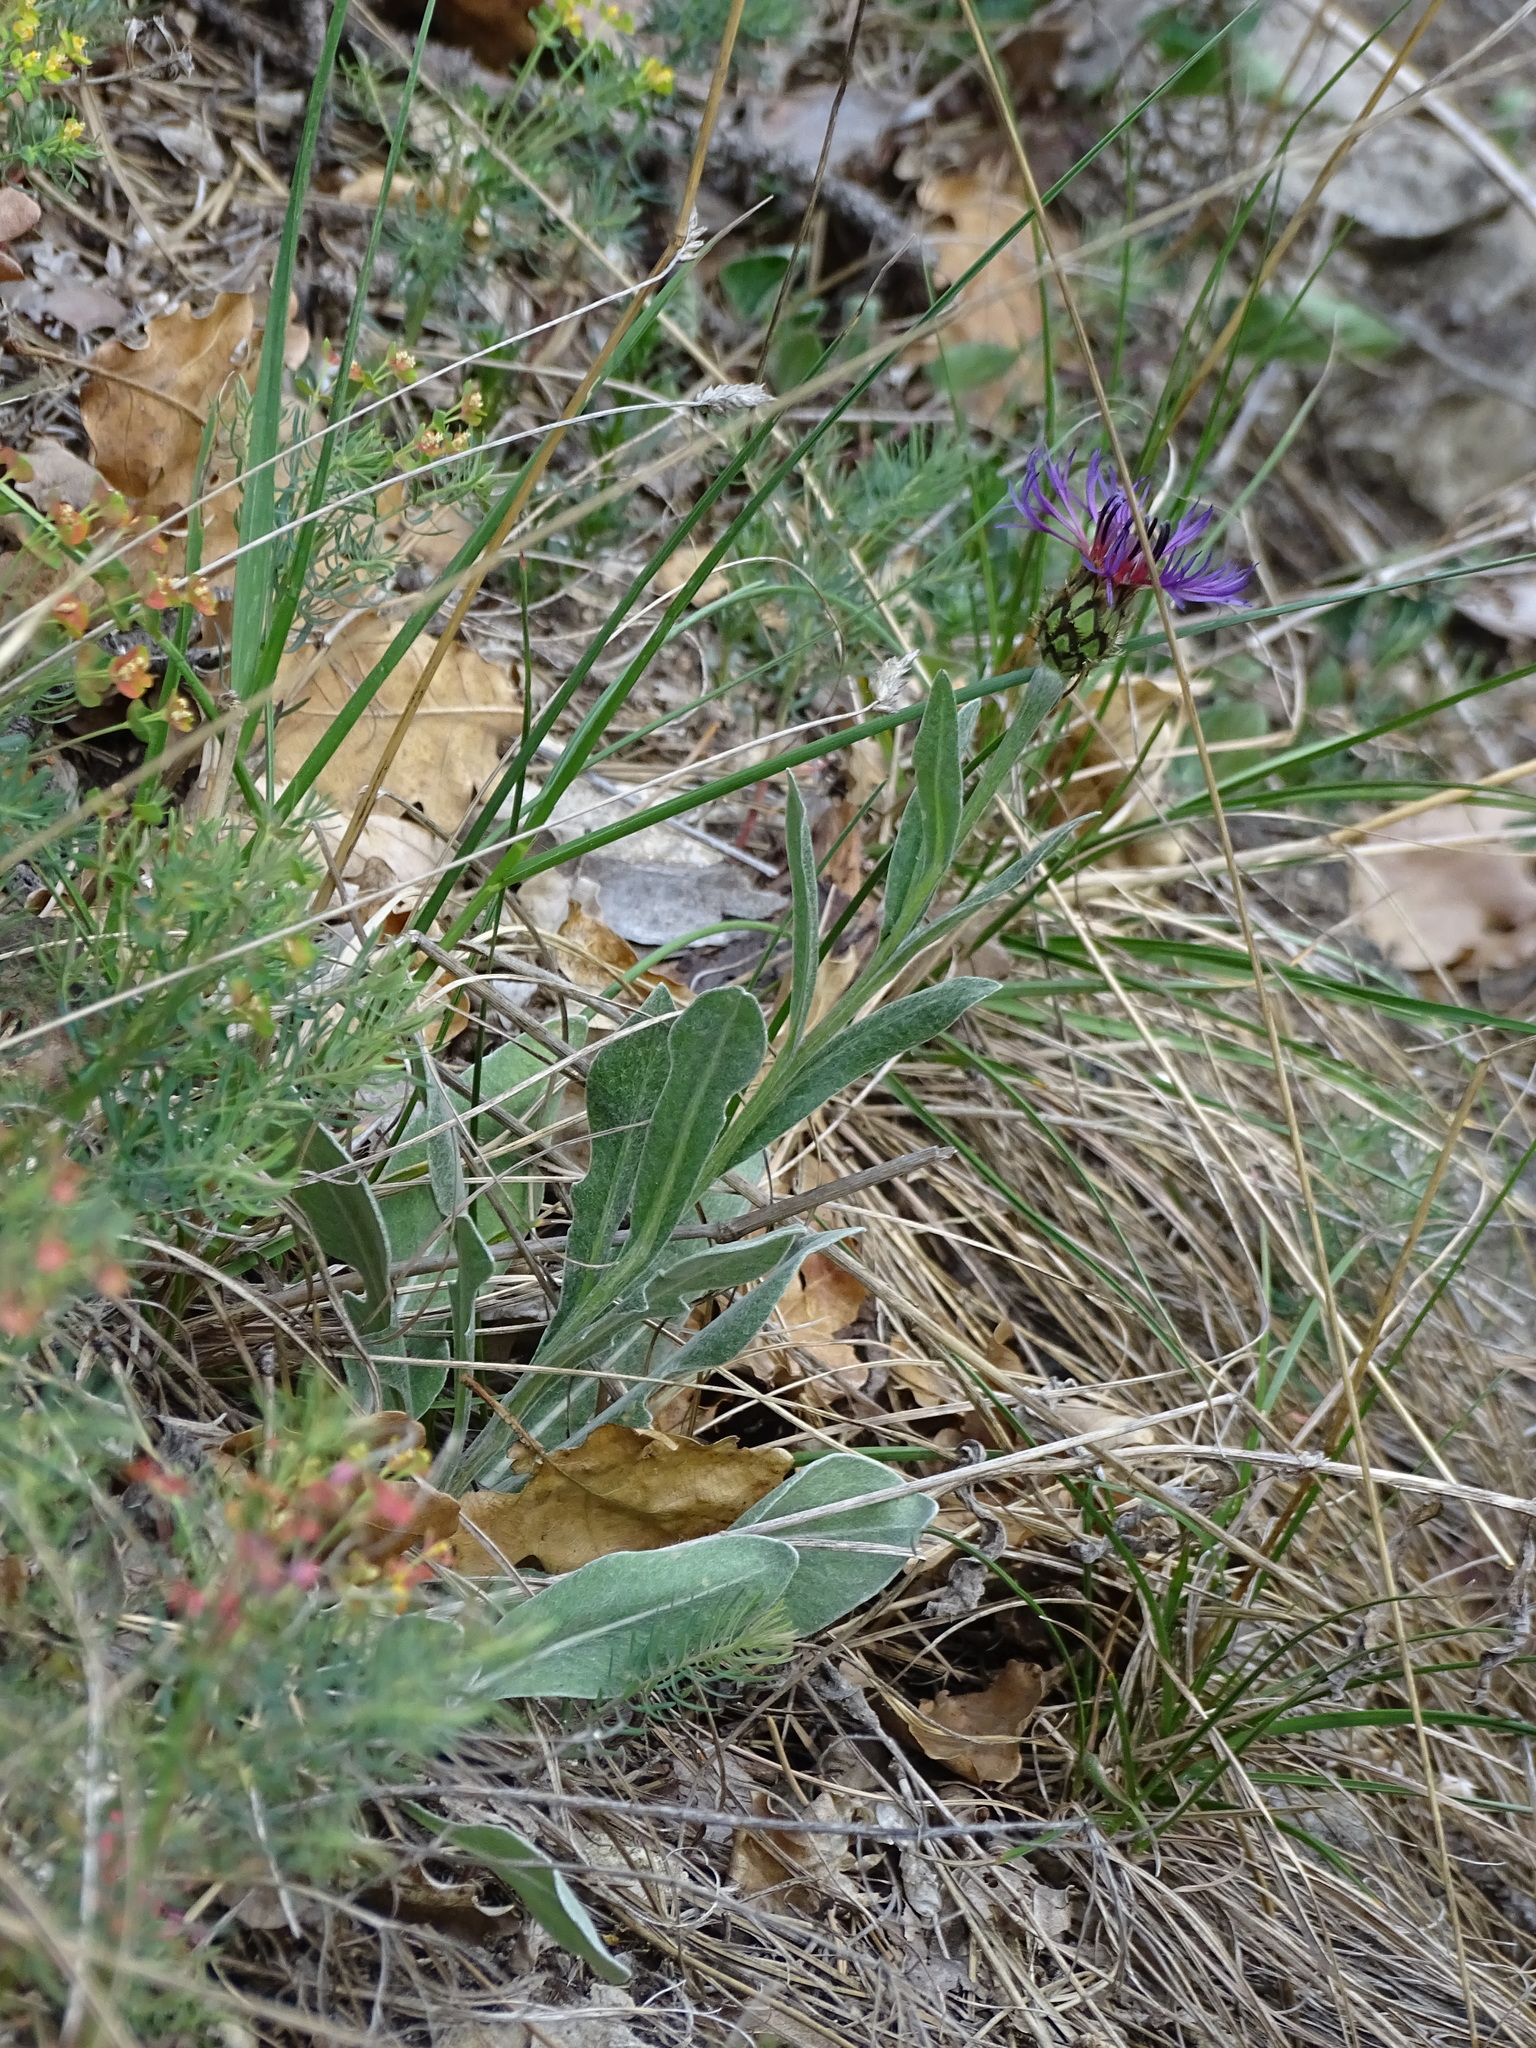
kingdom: Plantae
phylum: Tracheophyta
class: Magnoliopsida
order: Asterales
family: Asteraceae
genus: Centaurea
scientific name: Centaurea triumfettii
